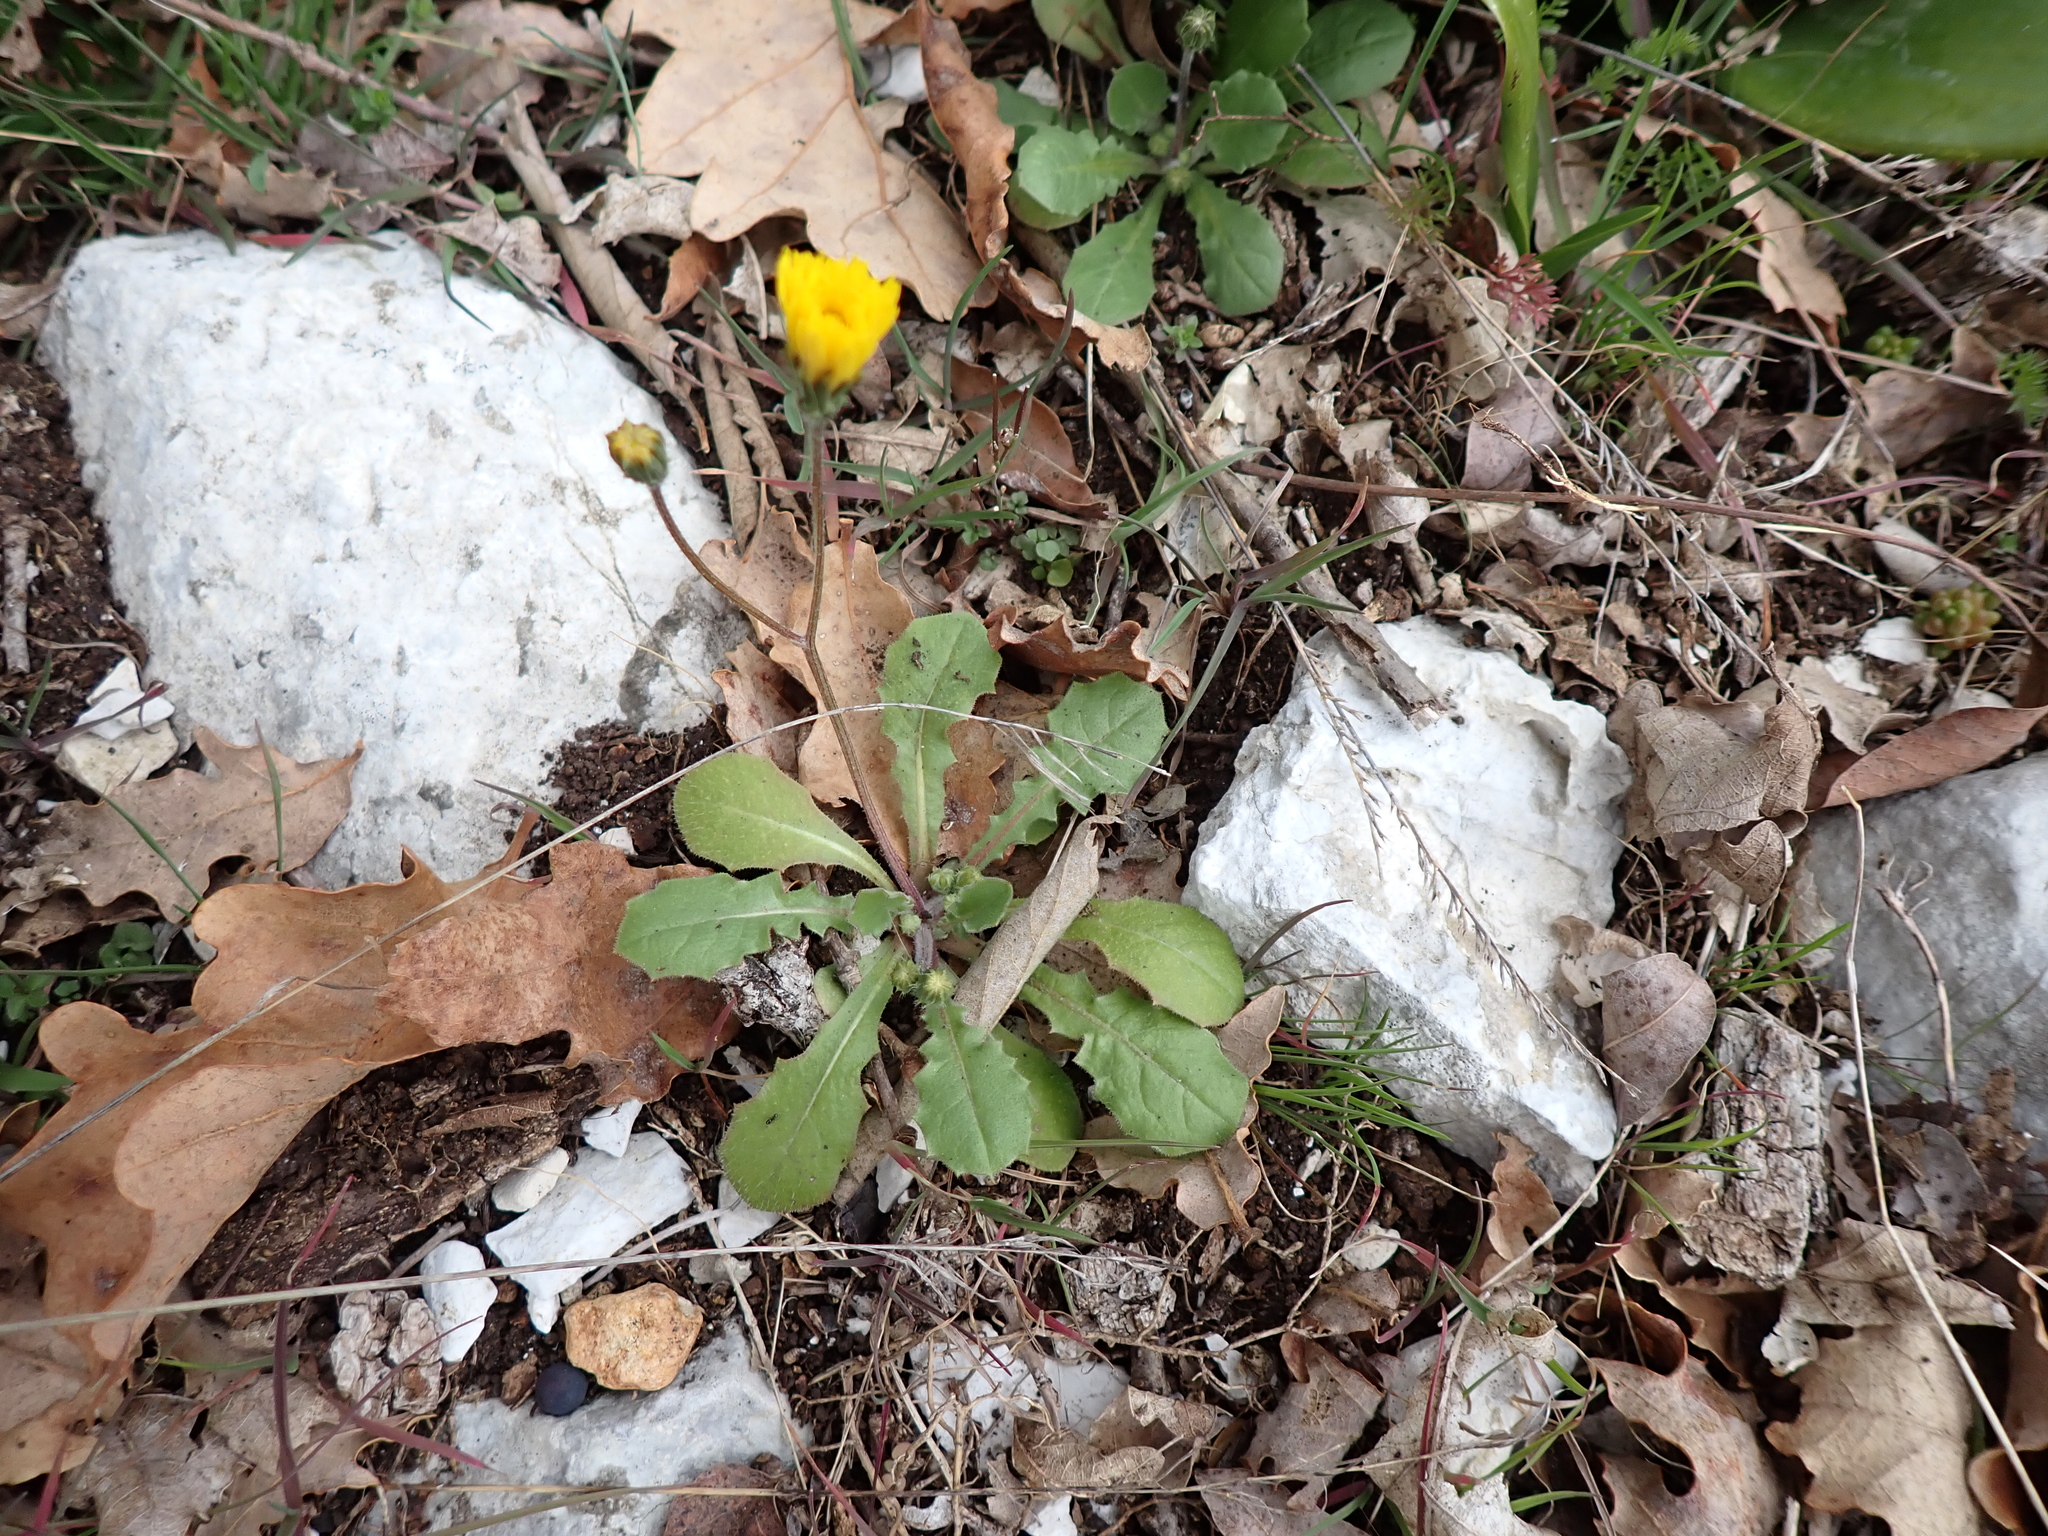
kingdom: Plantae
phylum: Tracheophyta
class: Magnoliopsida
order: Asterales
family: Asteraceae
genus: Crepis
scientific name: Crepis sancta
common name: Hawk's-beard
